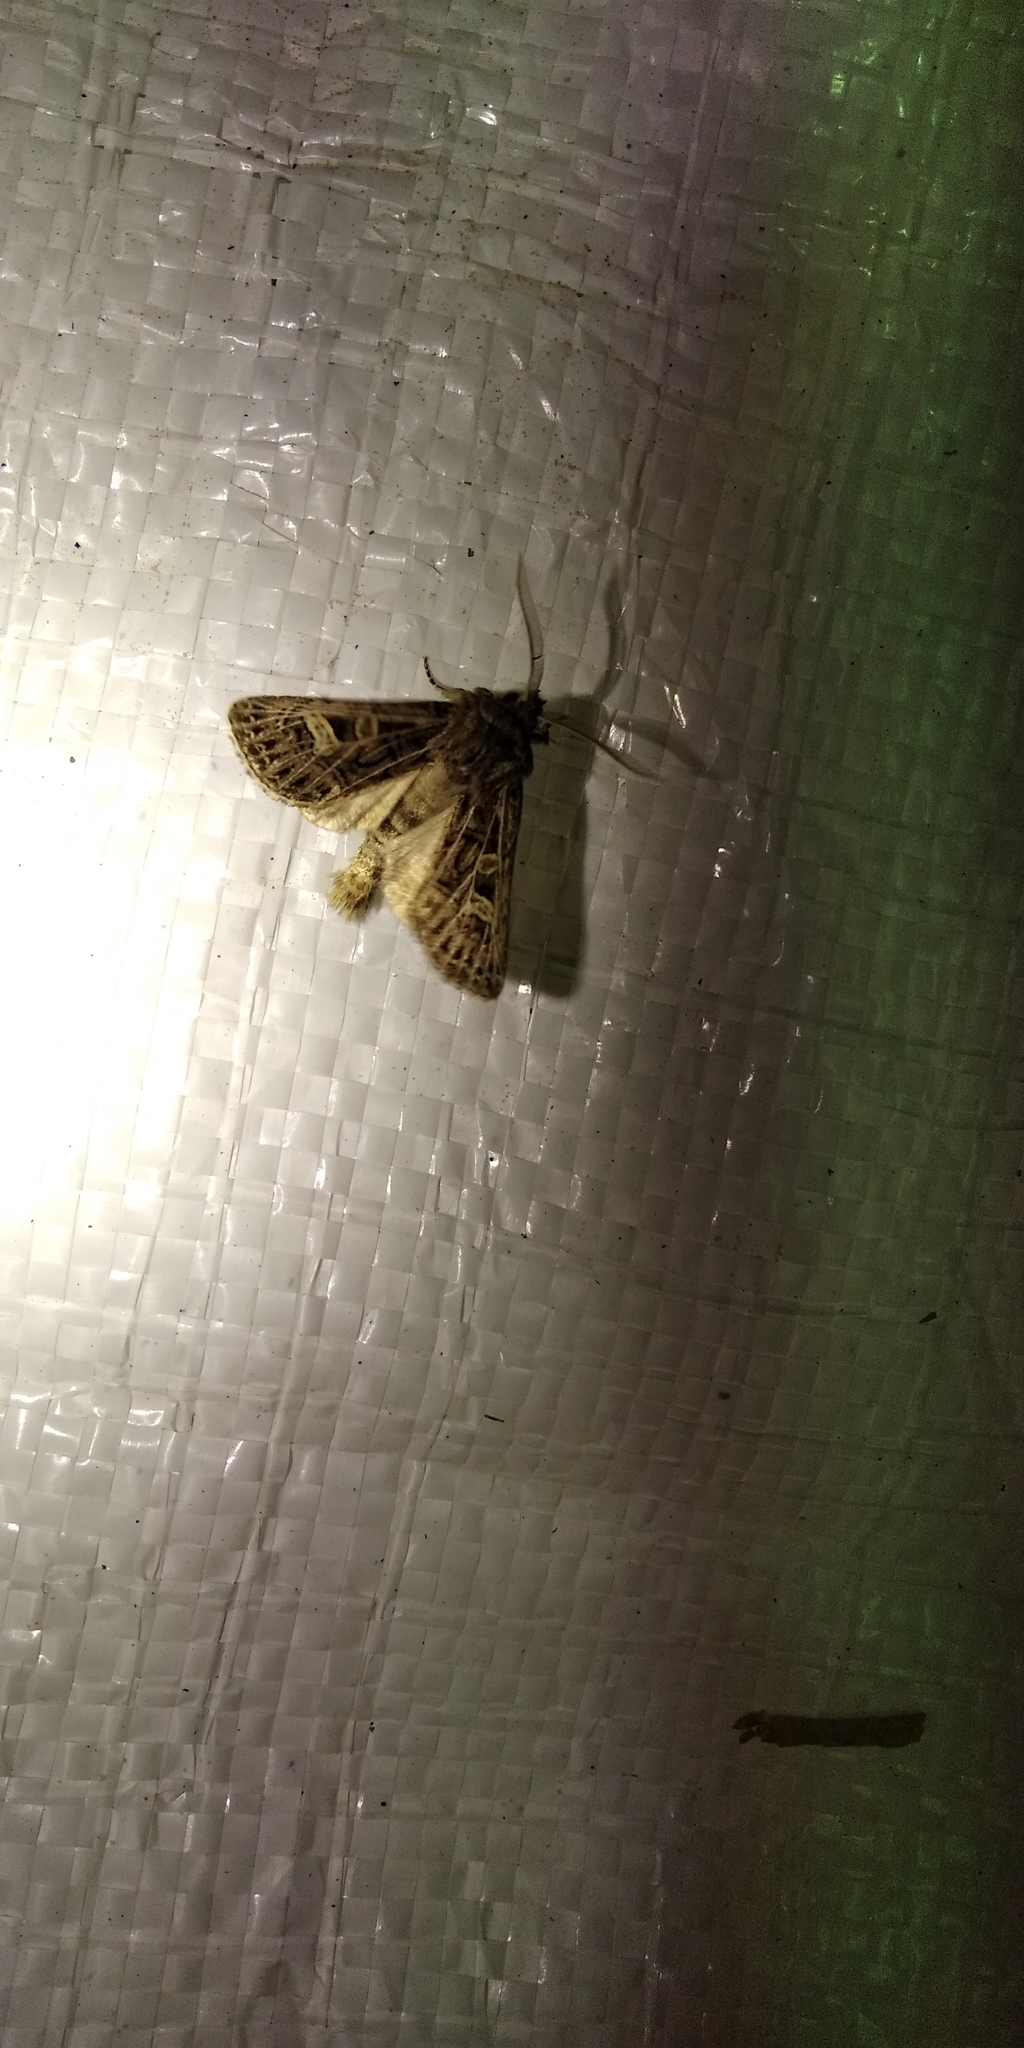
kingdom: Animalia
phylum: Arthropoda
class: Insecta
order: Lepidoptera
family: Noctuidae
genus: Tholera
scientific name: Tholera decimalis
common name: Feathered gothic
